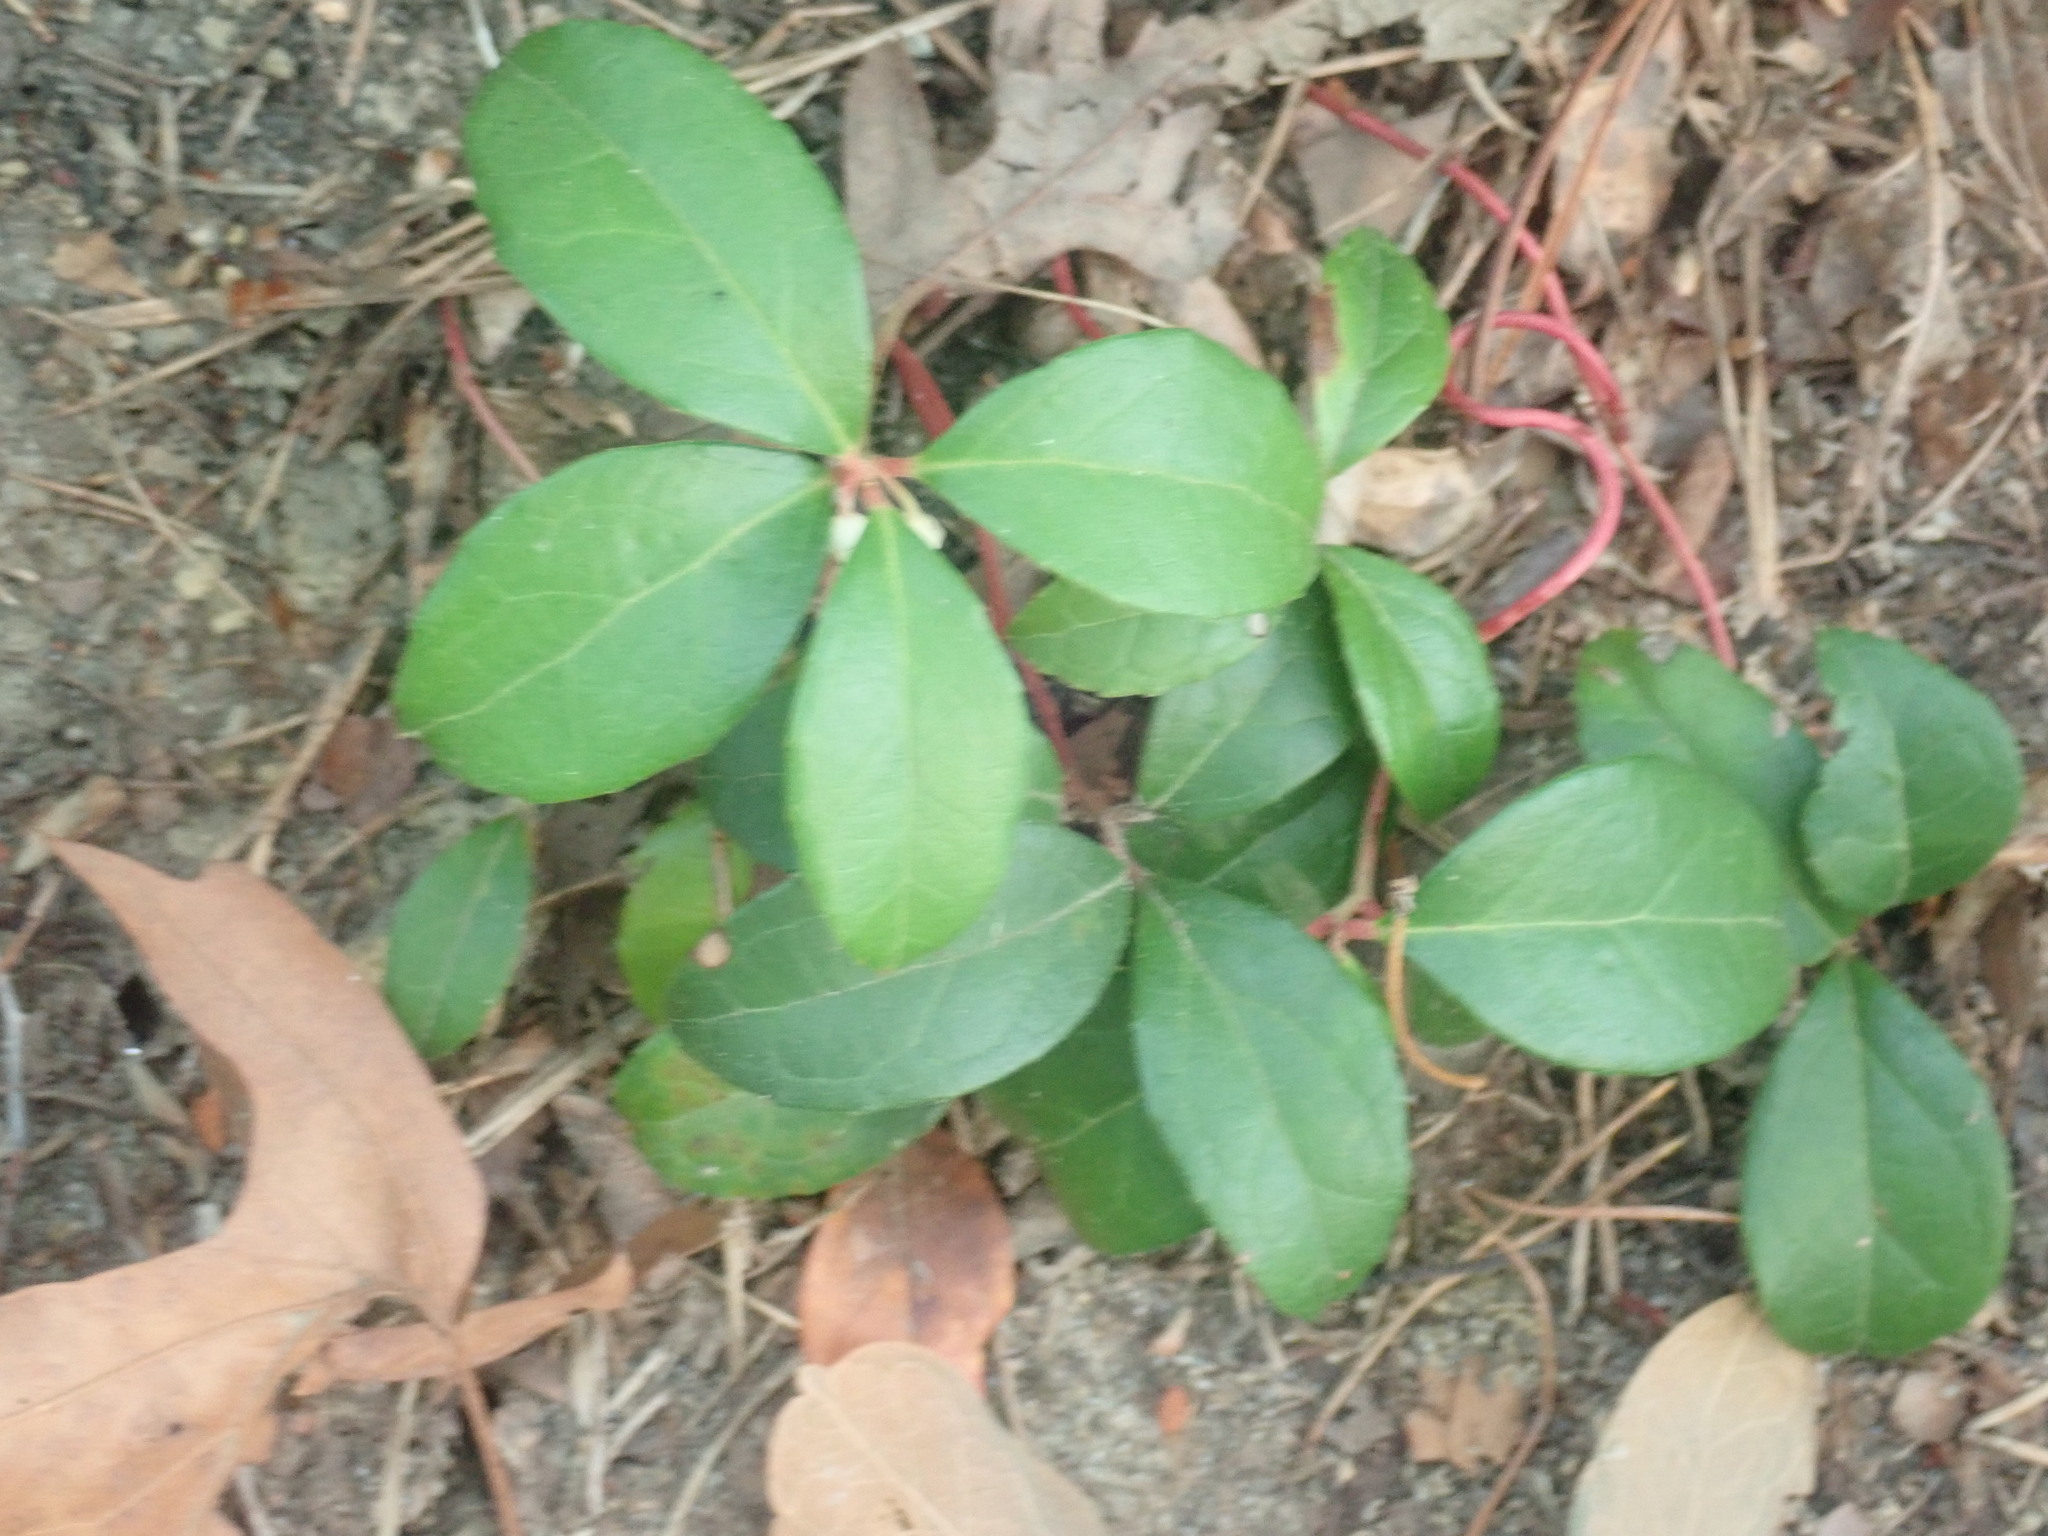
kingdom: Plantae
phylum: Tracheophyta
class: Magnoliopsida
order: Ericales
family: Ericaceae
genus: Gaultheria
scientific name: Gaultheria procumbens
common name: Checkerberry
